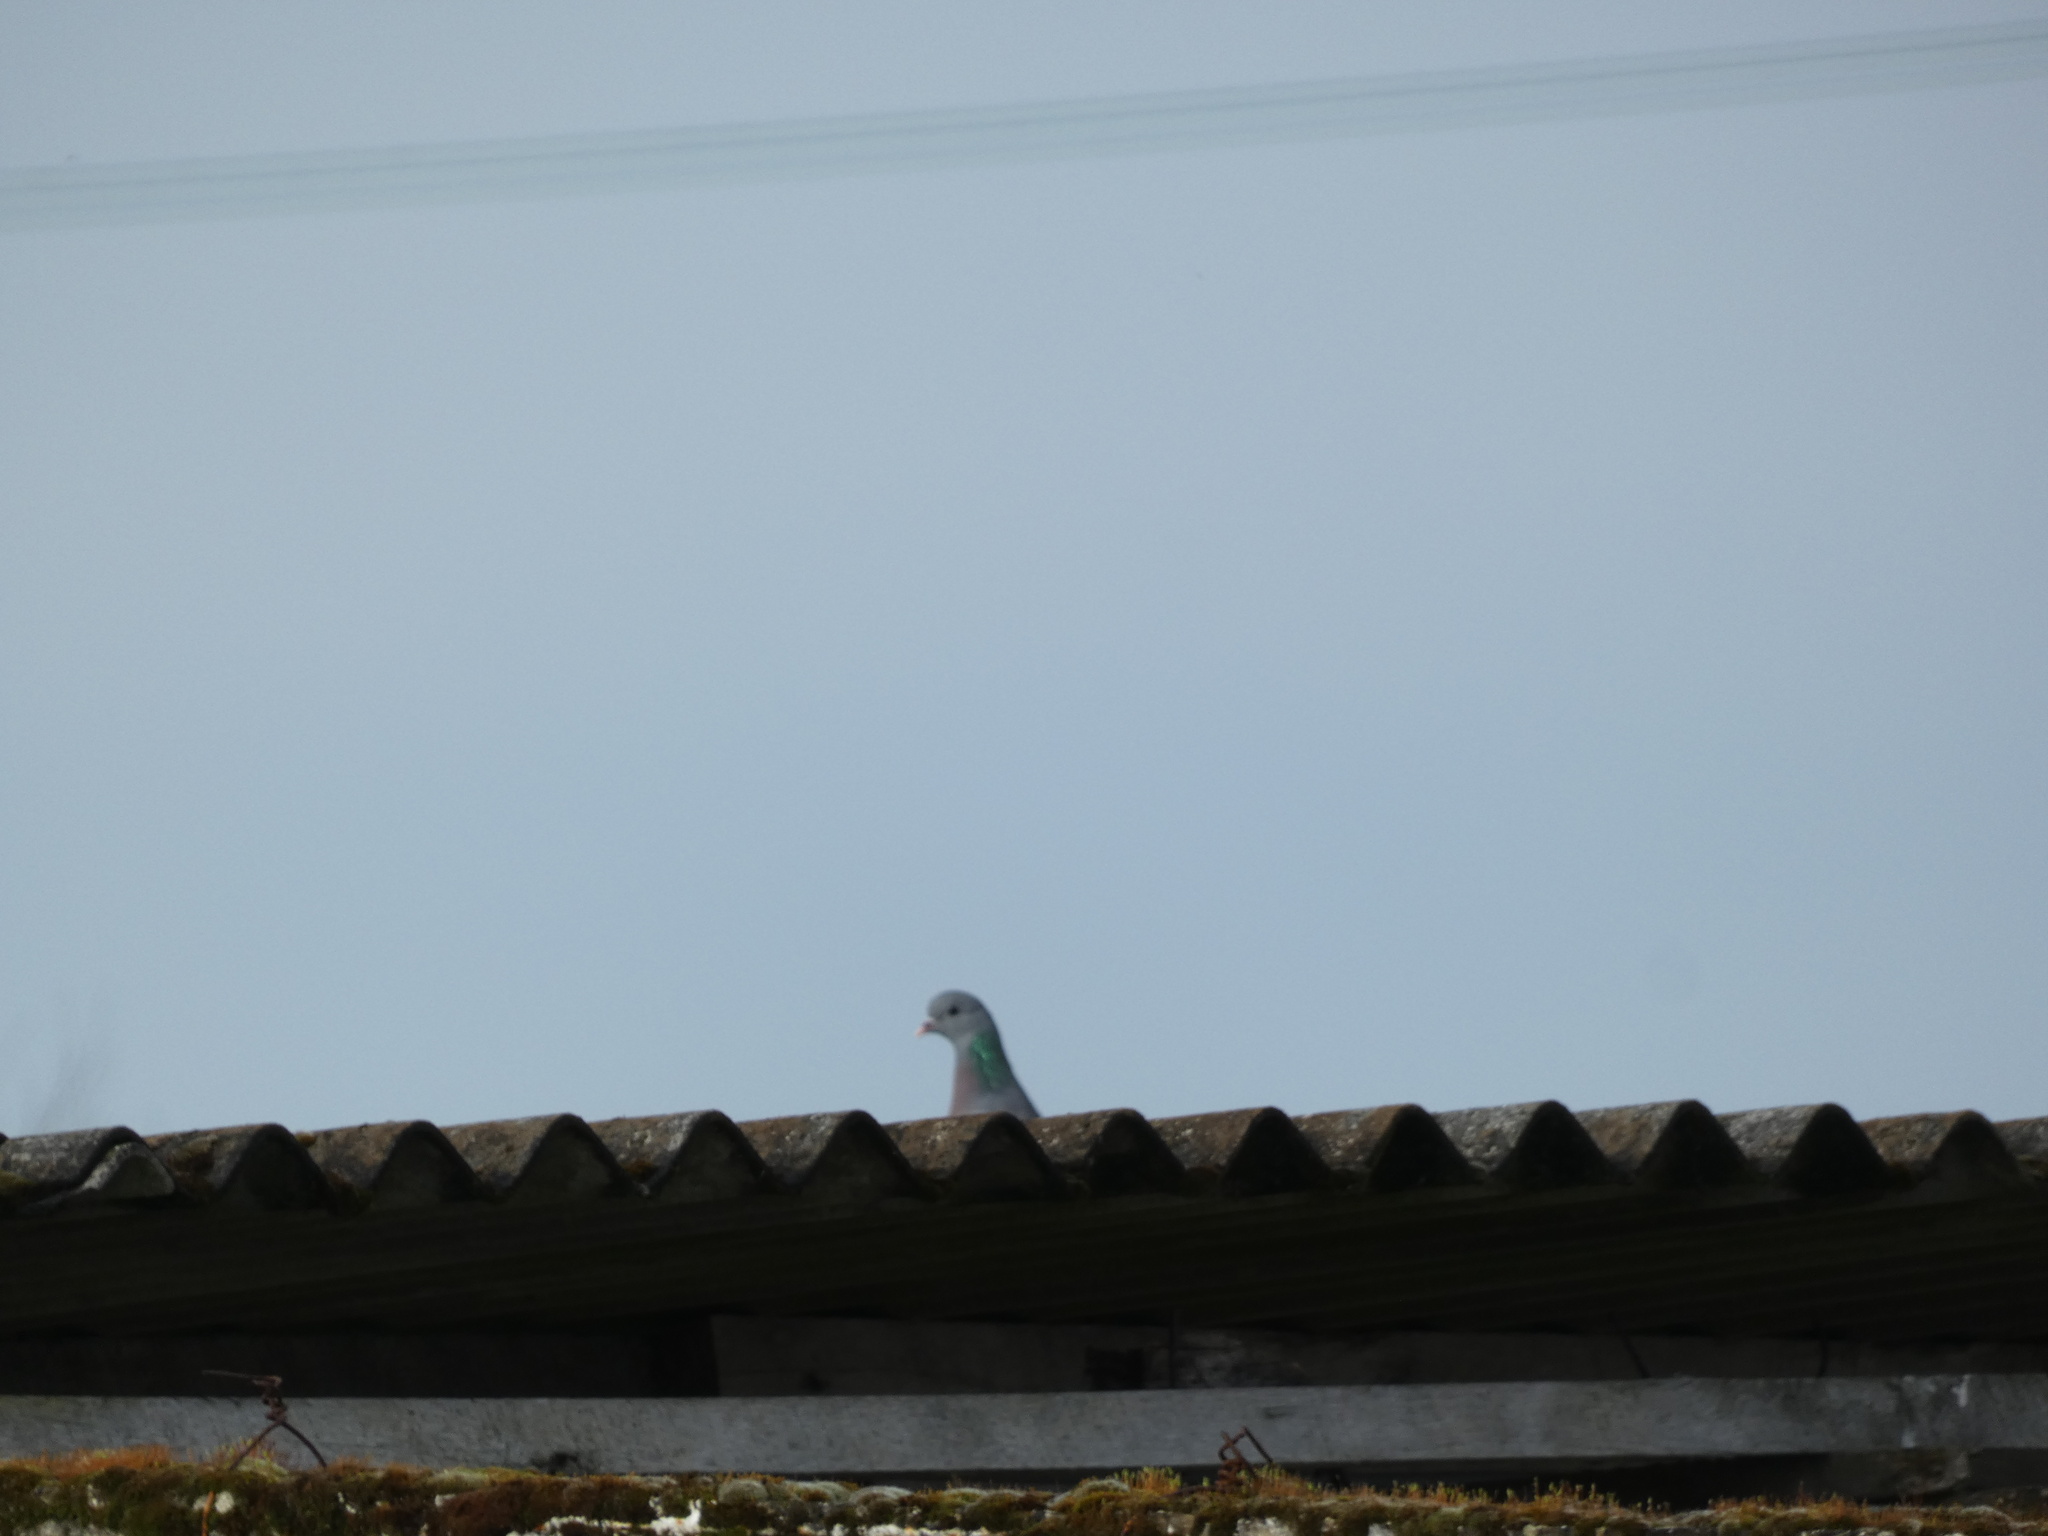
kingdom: Animalia
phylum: Chordata
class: Aves
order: Columbiformes
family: Columbidae
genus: Columba
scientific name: Columba oenas
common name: Stock dove
